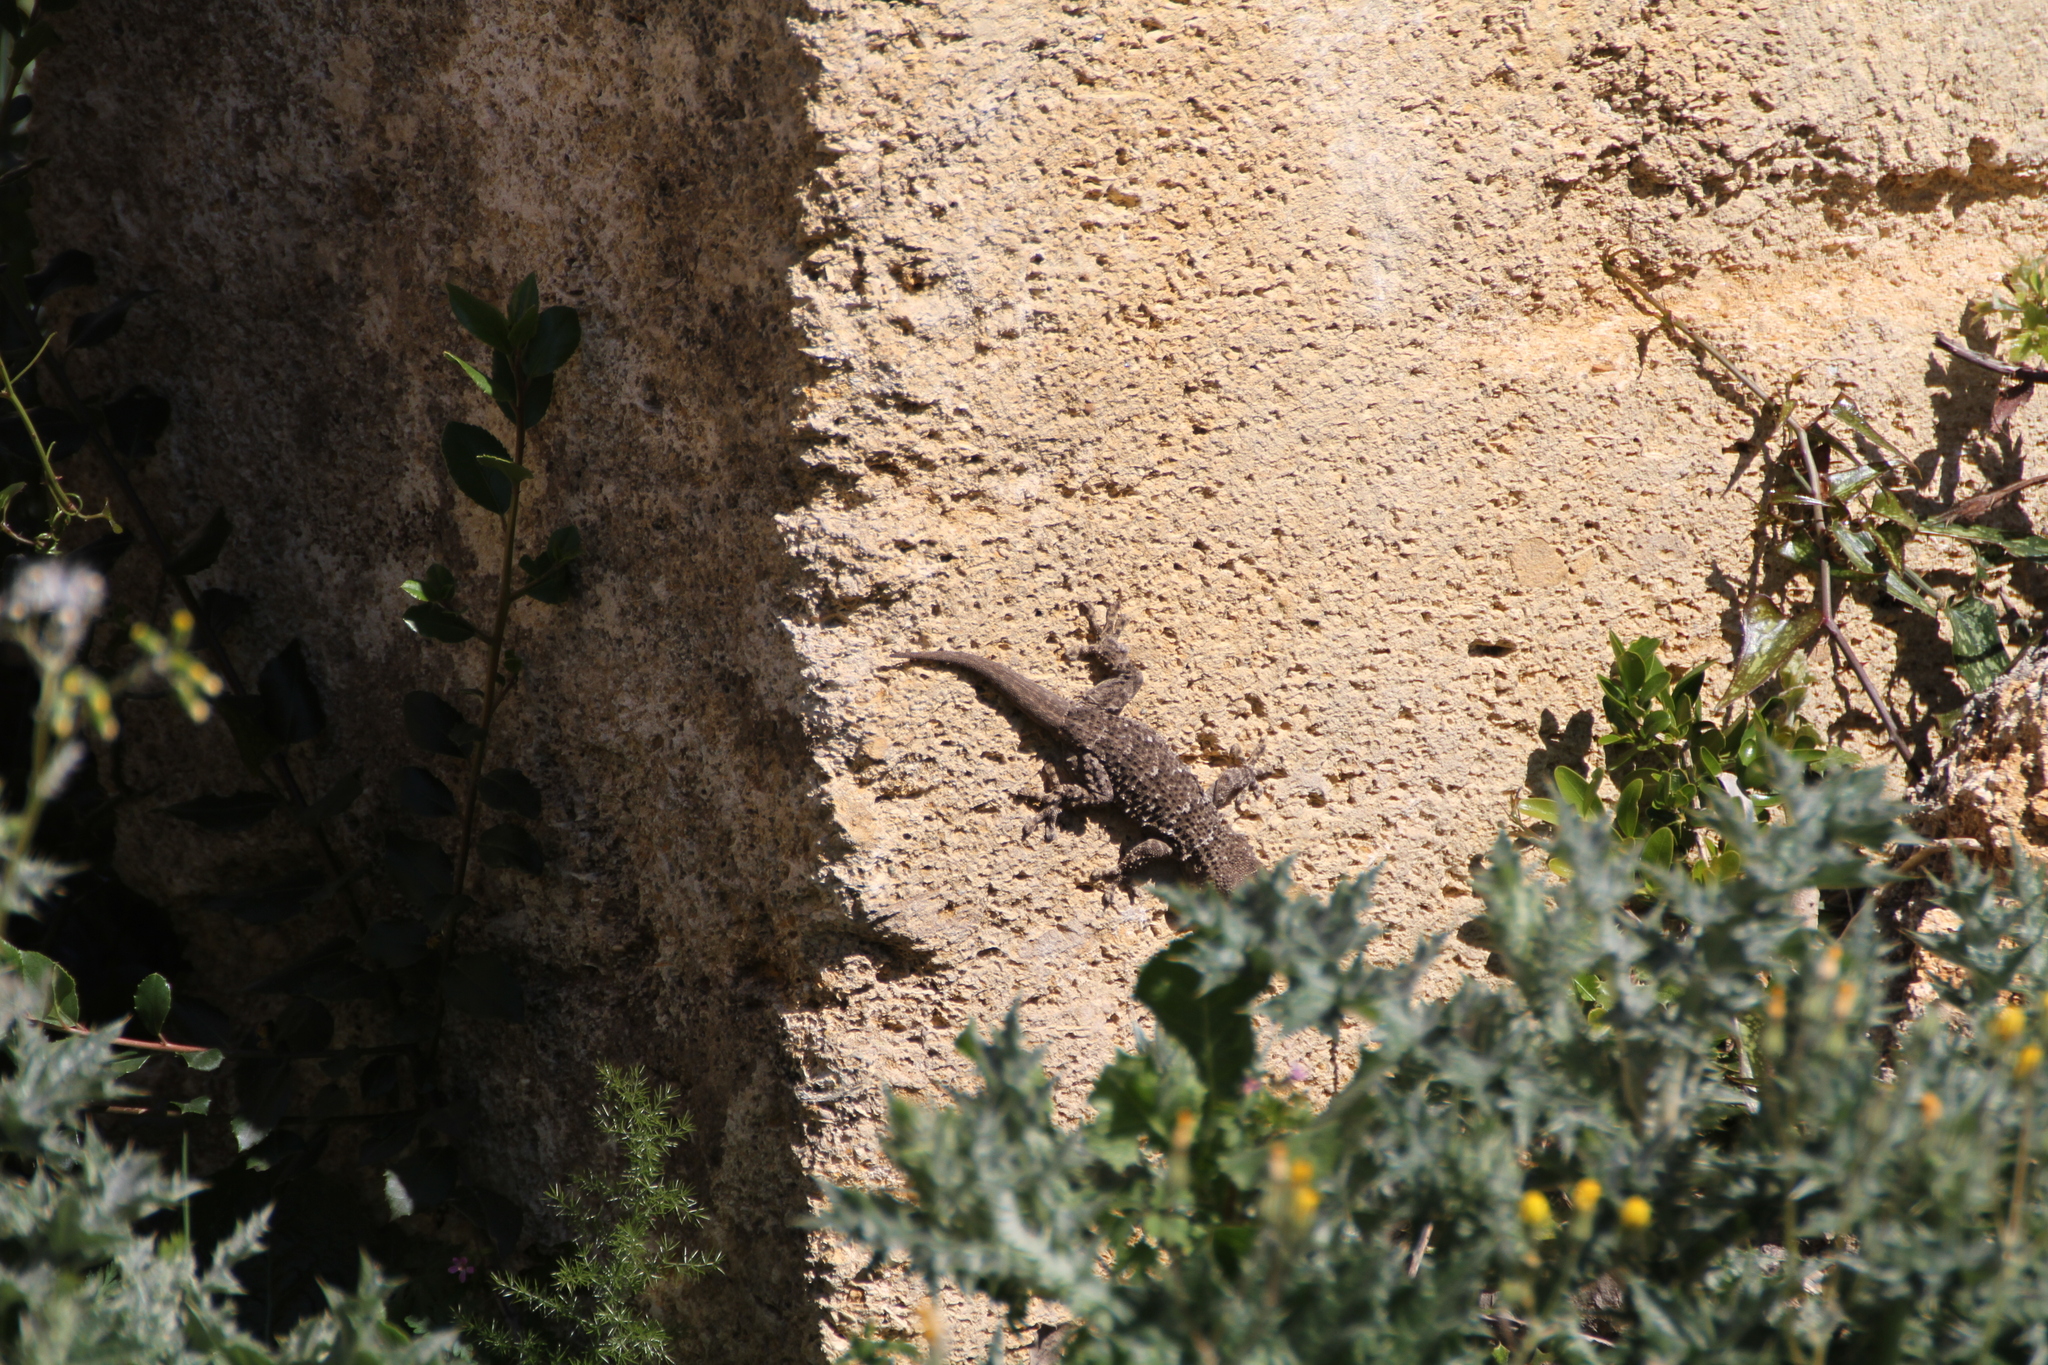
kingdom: Animalia
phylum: Chordata
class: Squamata
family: Phyllodactylidae
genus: Tarentola
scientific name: Tarentola mauritanica
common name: Moorish gecko
